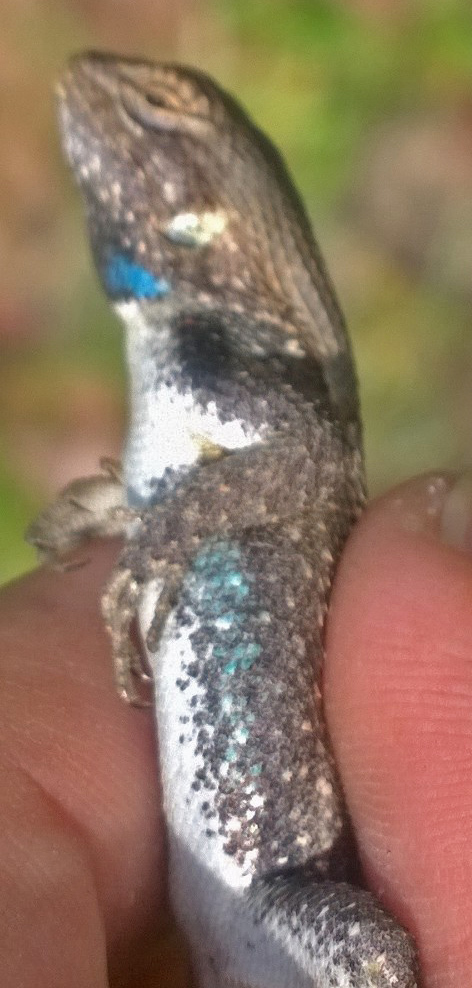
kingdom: Animalia
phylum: Chordata
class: Squamata
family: Phrynosomatidae
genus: Sceloporus
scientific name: Sceloporus consobrinus
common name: Southern prairie lizard
